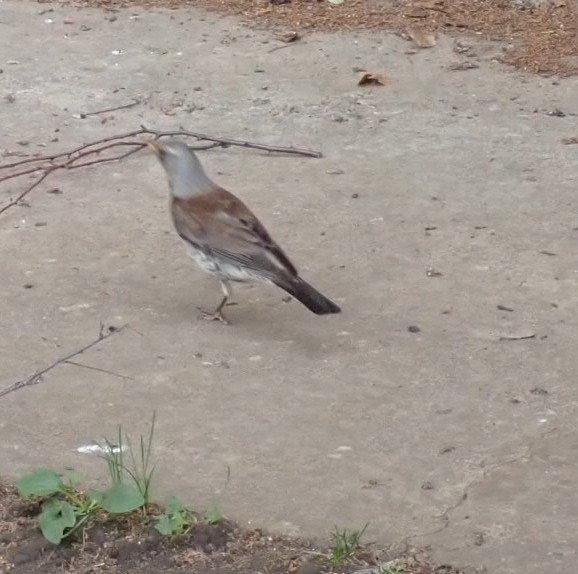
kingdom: Animalia
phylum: Chordata
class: Aves
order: Passeriformes
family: Turdidae
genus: Turdus
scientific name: Turdus pilaris
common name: Fieldfare
